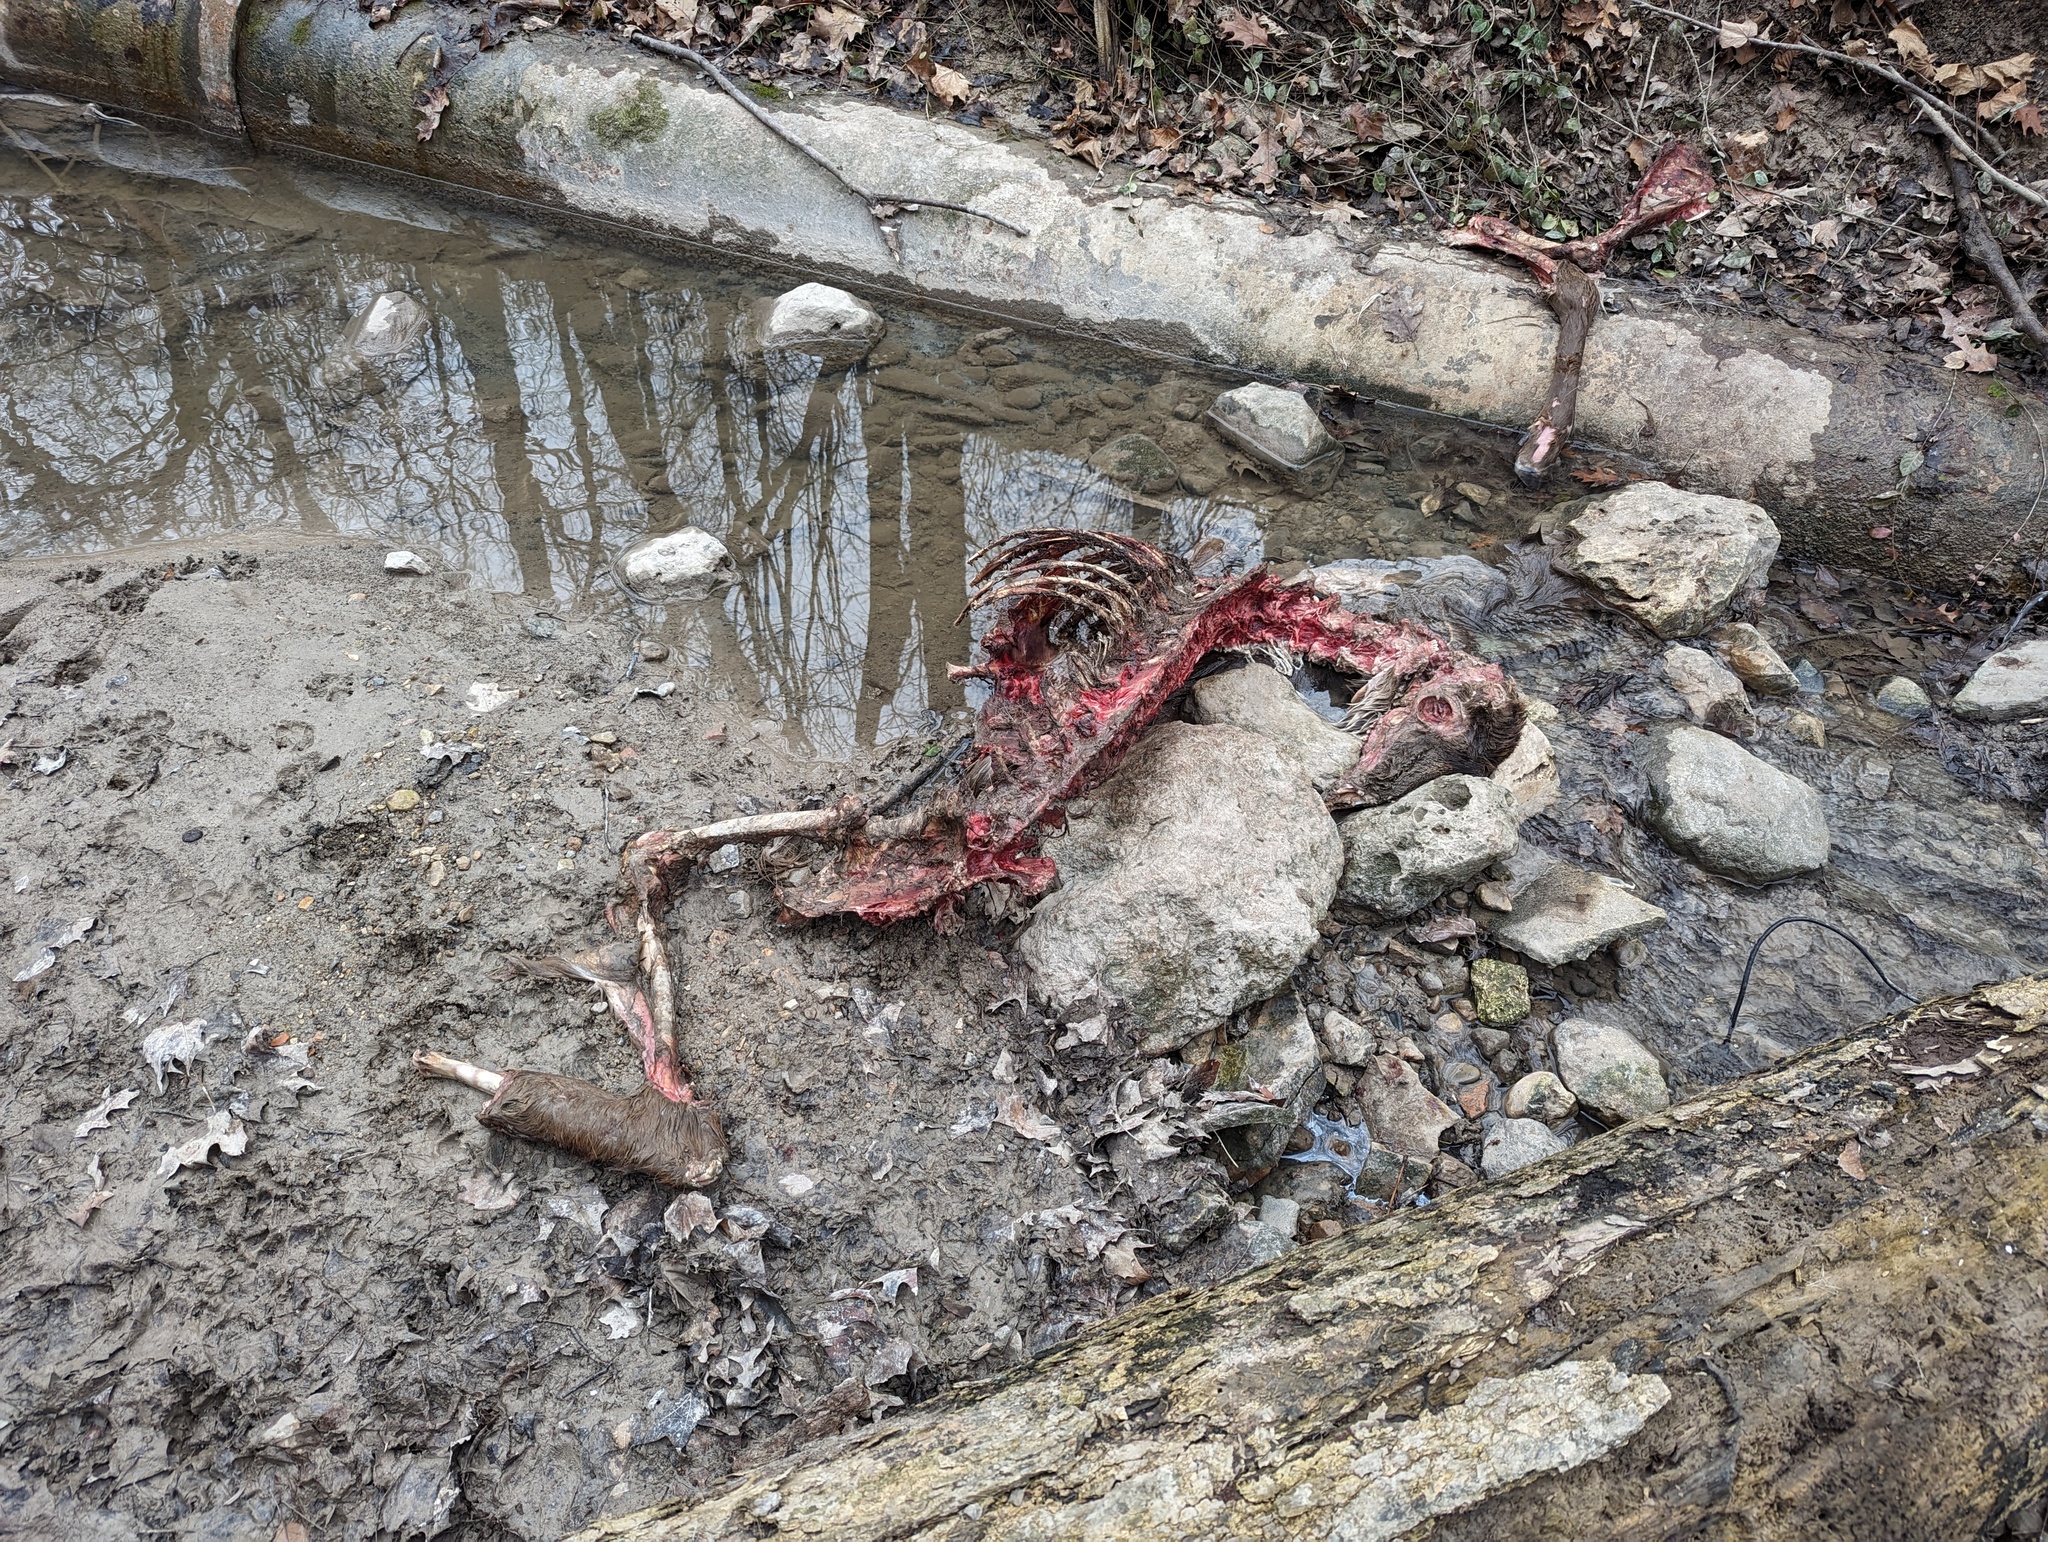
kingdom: Animalia
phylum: Chordata
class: Mammalia
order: Artiodactyla
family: Cervidae
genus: Odocoileus
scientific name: Odocoileus virginianus
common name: White-tailed deer
